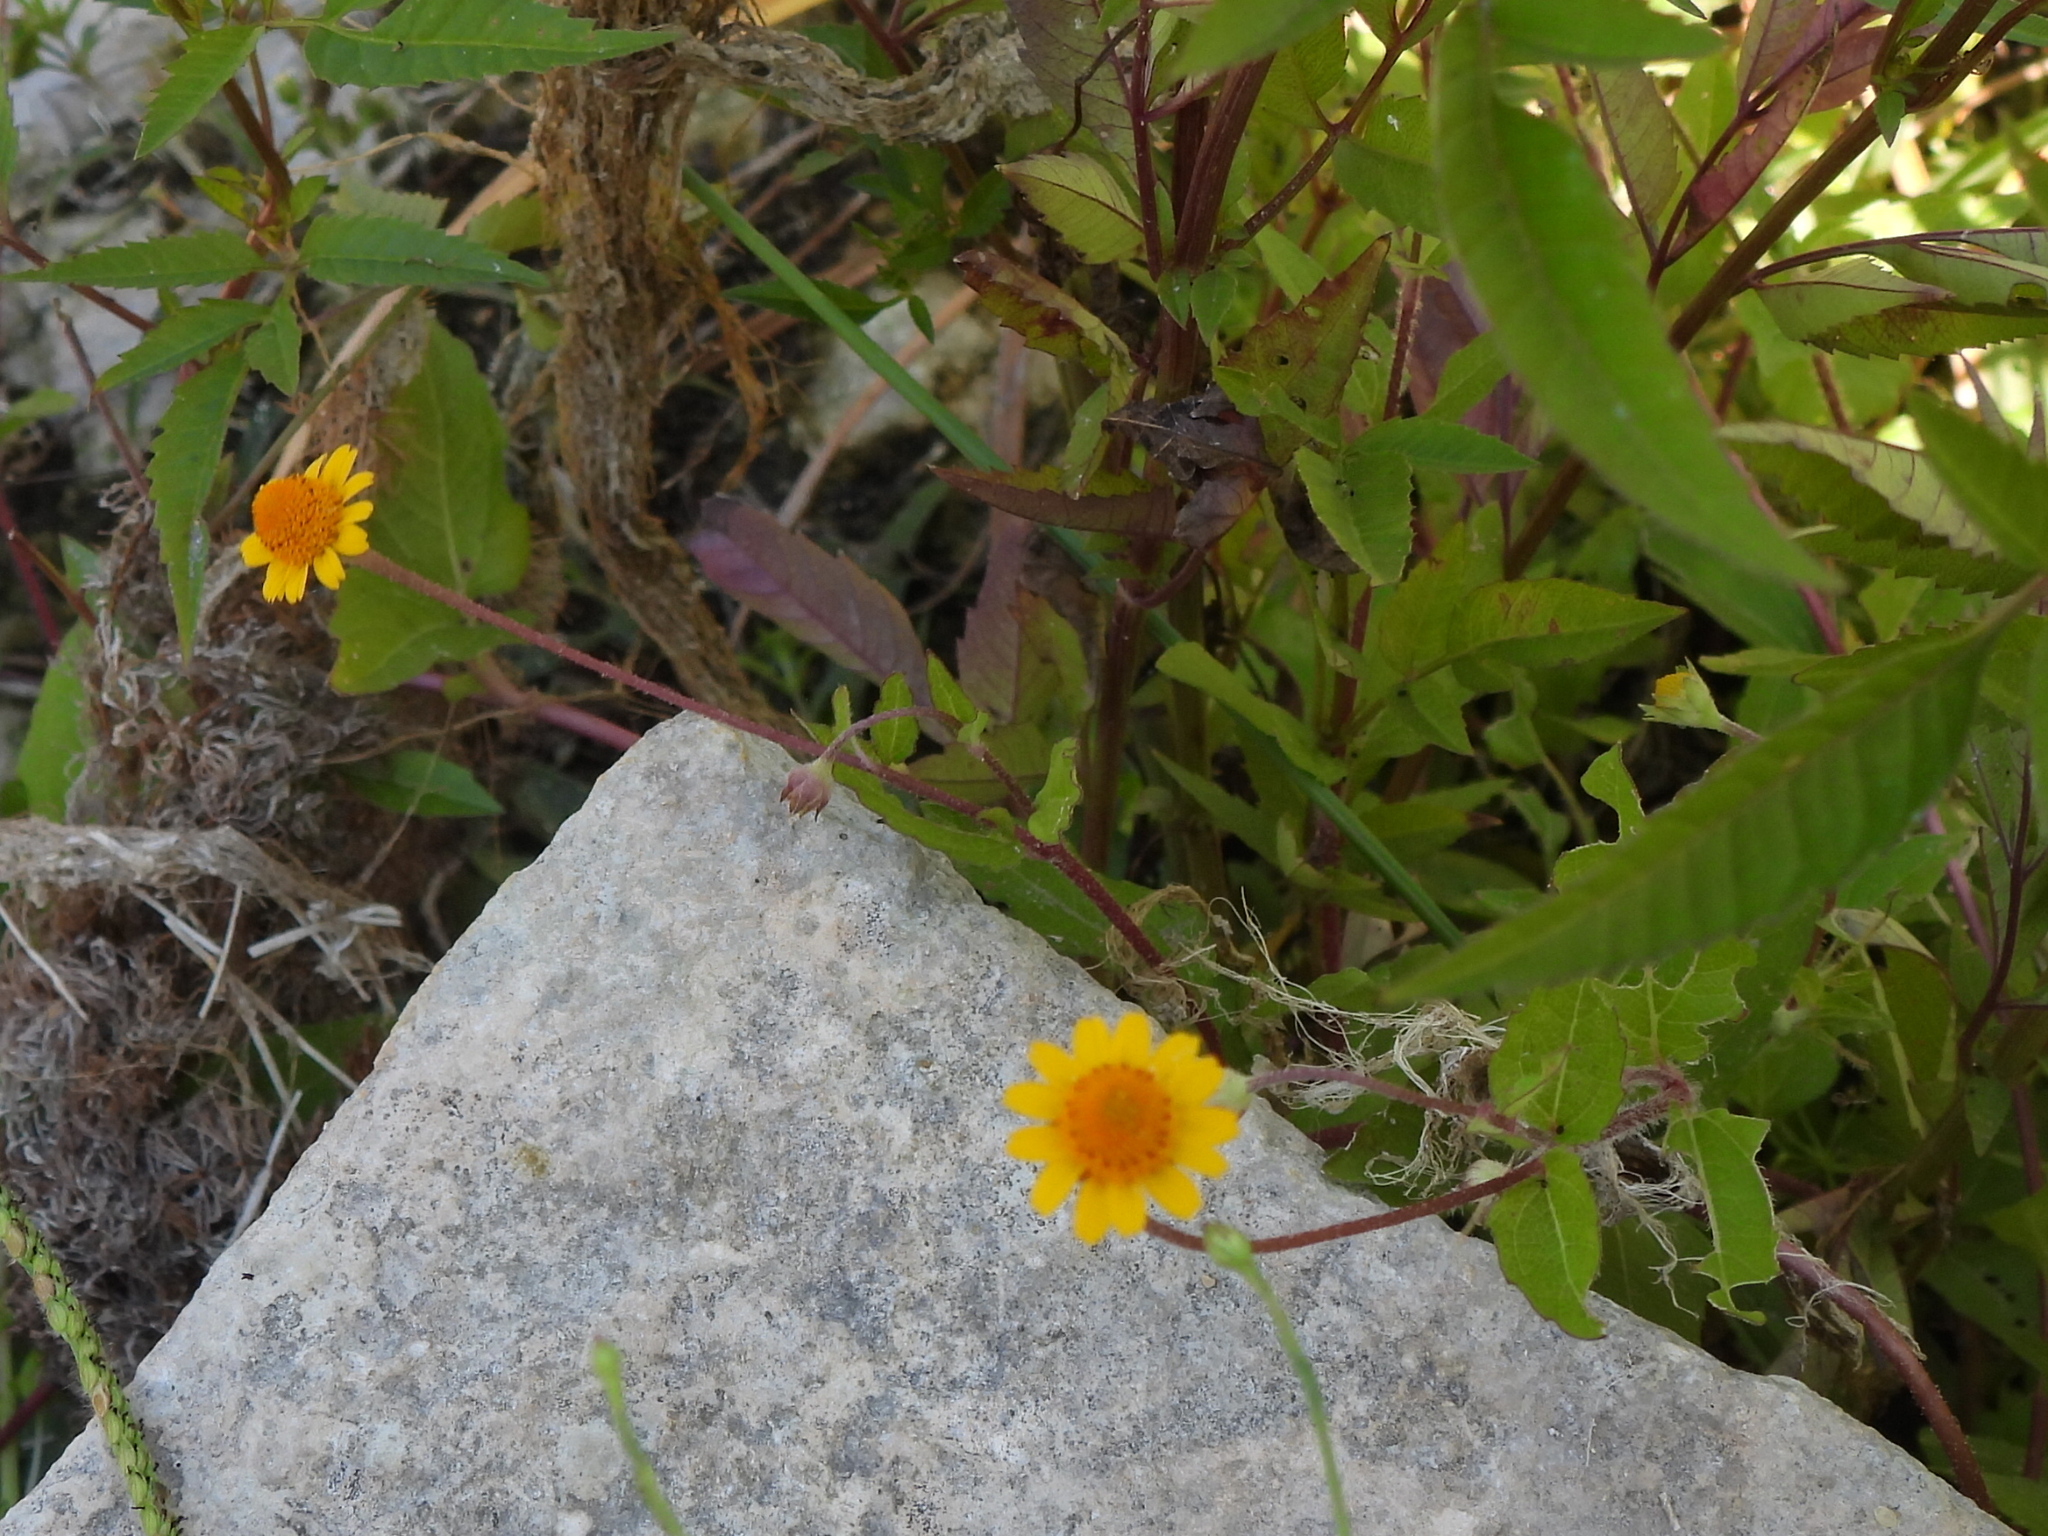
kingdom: Plantae
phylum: Tracheophyta
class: Magnoliopsida
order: Asterales
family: Asteraceae
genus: Acmella
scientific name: Acmella repens
